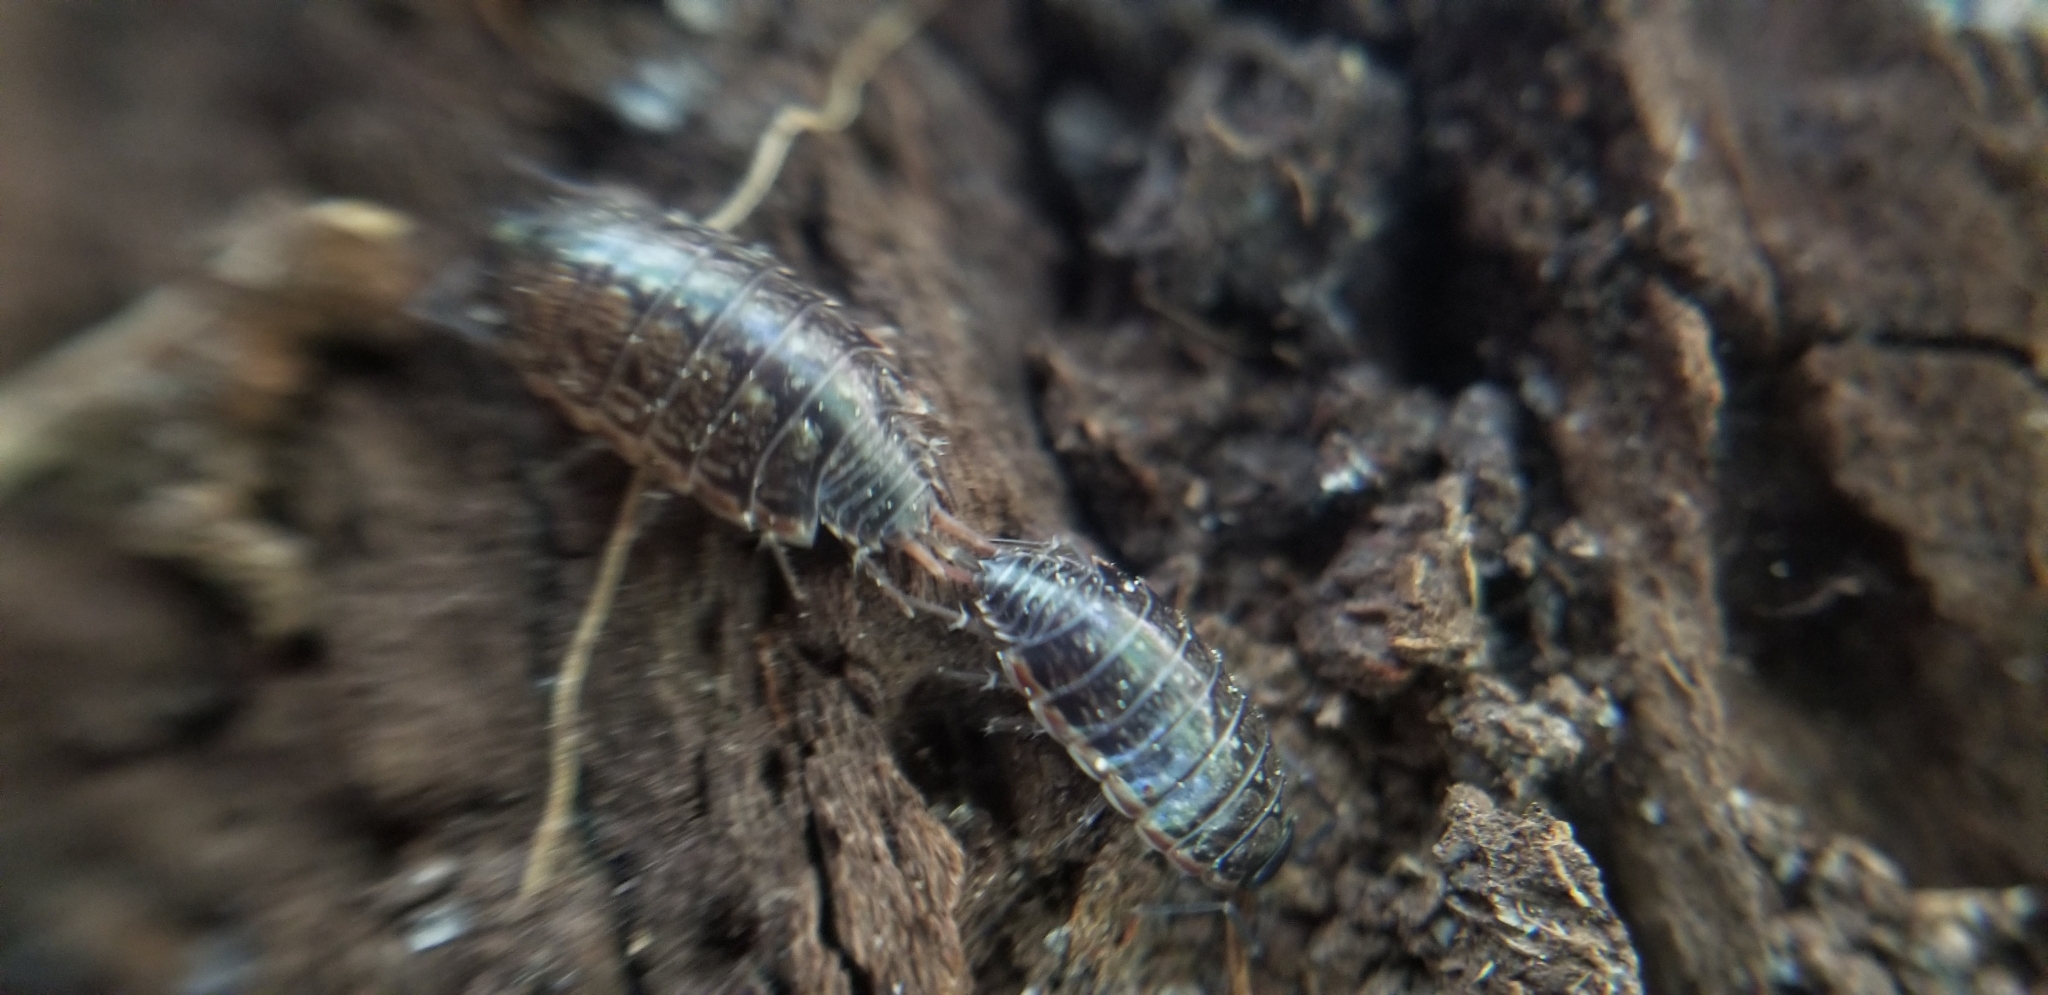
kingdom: Animalia
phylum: Arthropoda
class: Malacostraca
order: Isopoda
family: Philosciidae
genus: Philoscia
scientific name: Philoscia muscorum
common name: Common striped woodlouse
